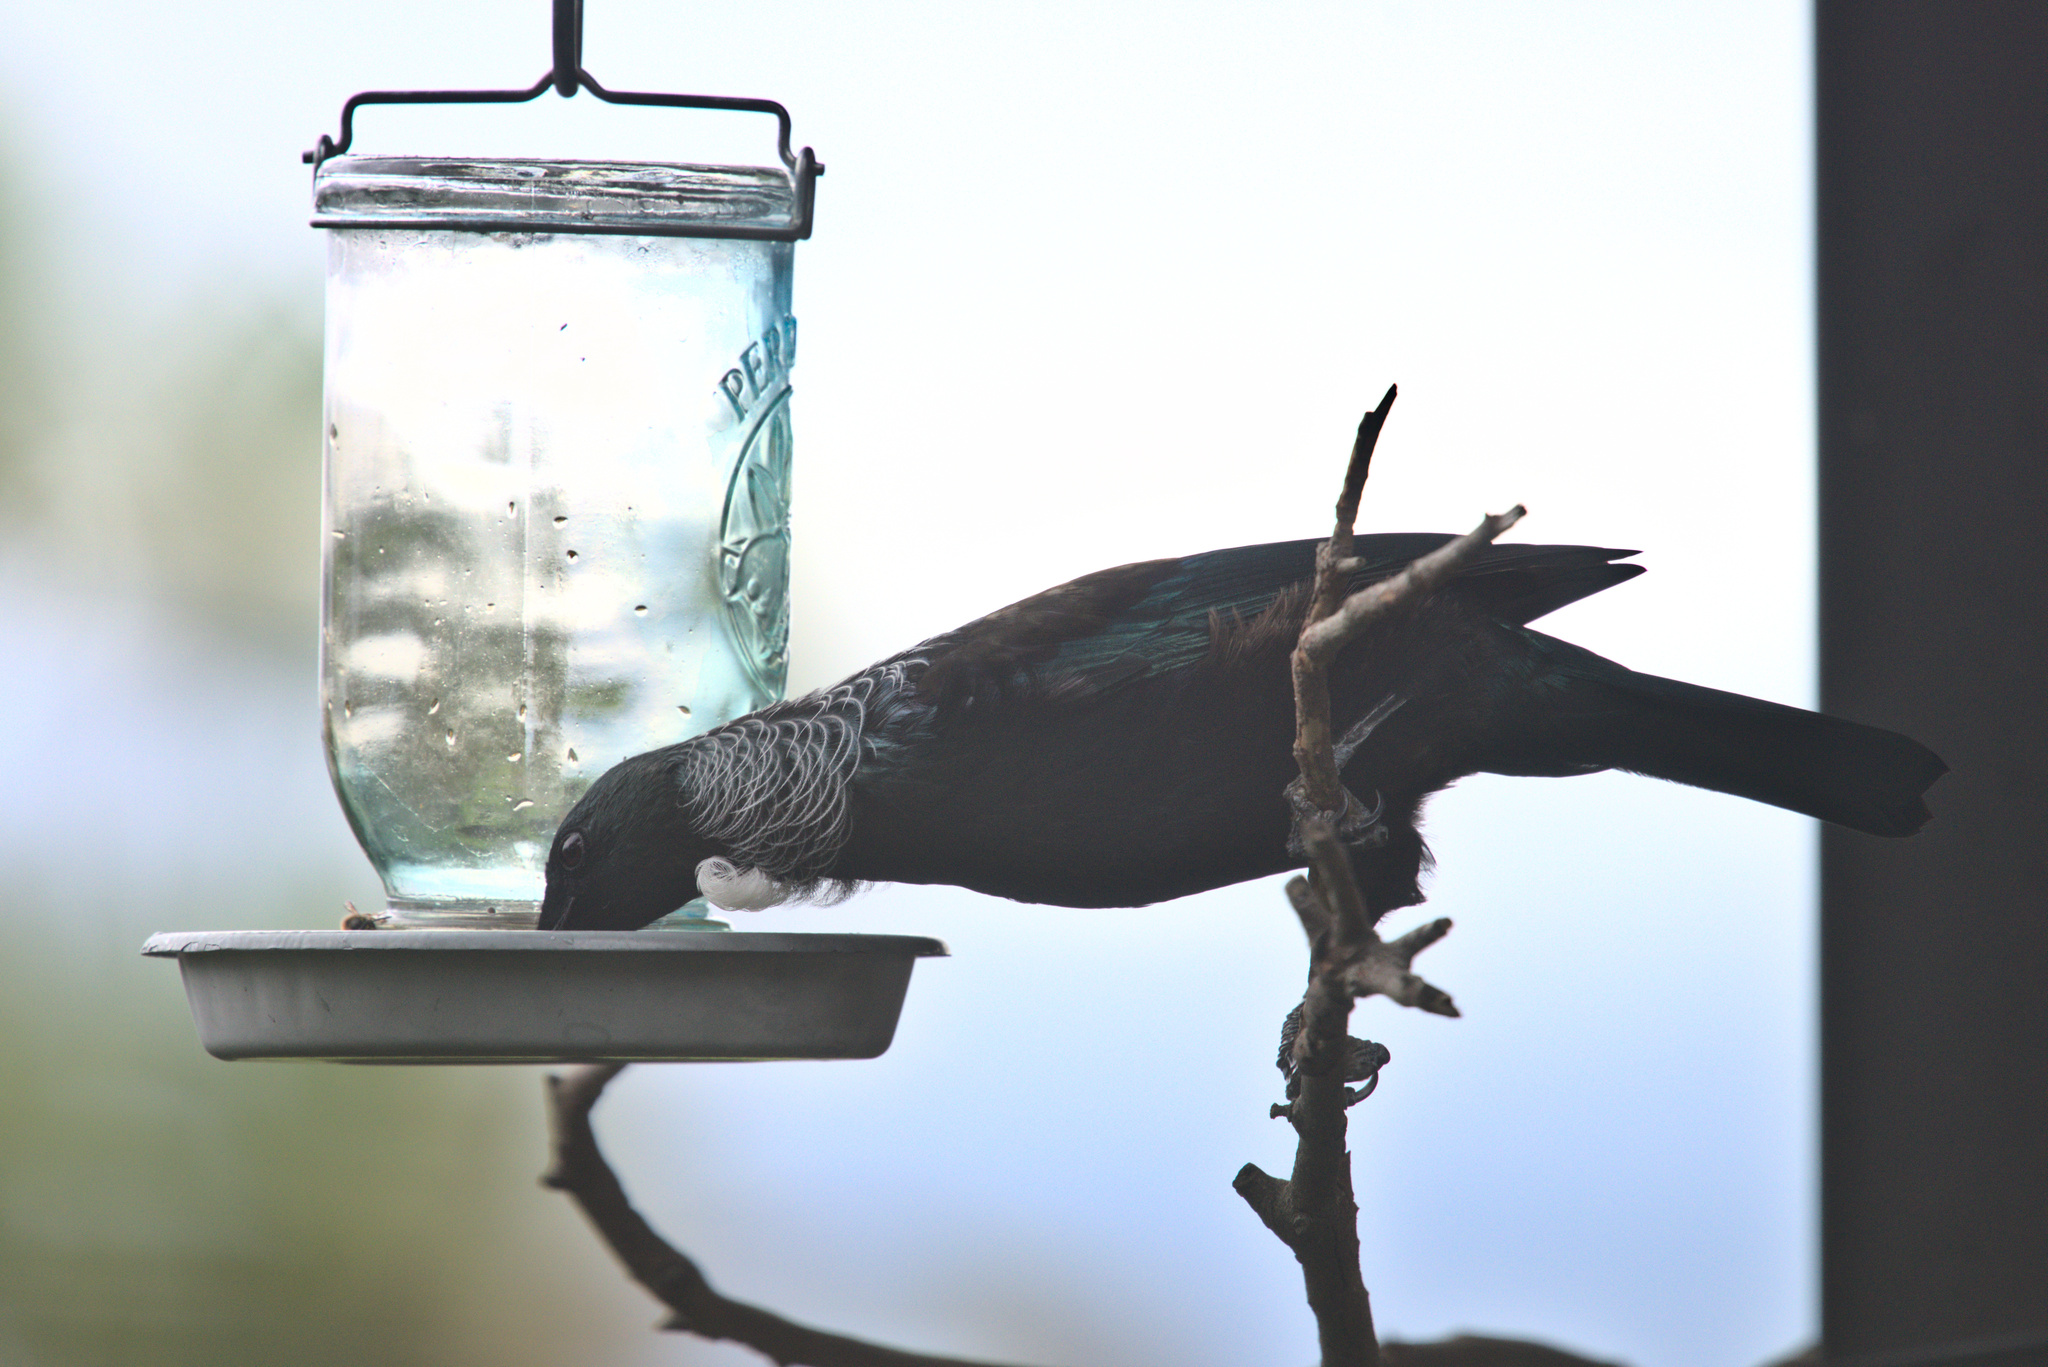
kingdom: Animalia
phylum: Chordata
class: Aves
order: Passeriformes
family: Meliphagidae
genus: Prosthemadera
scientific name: Prosthemadera novaeseelandiae
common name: Tui
